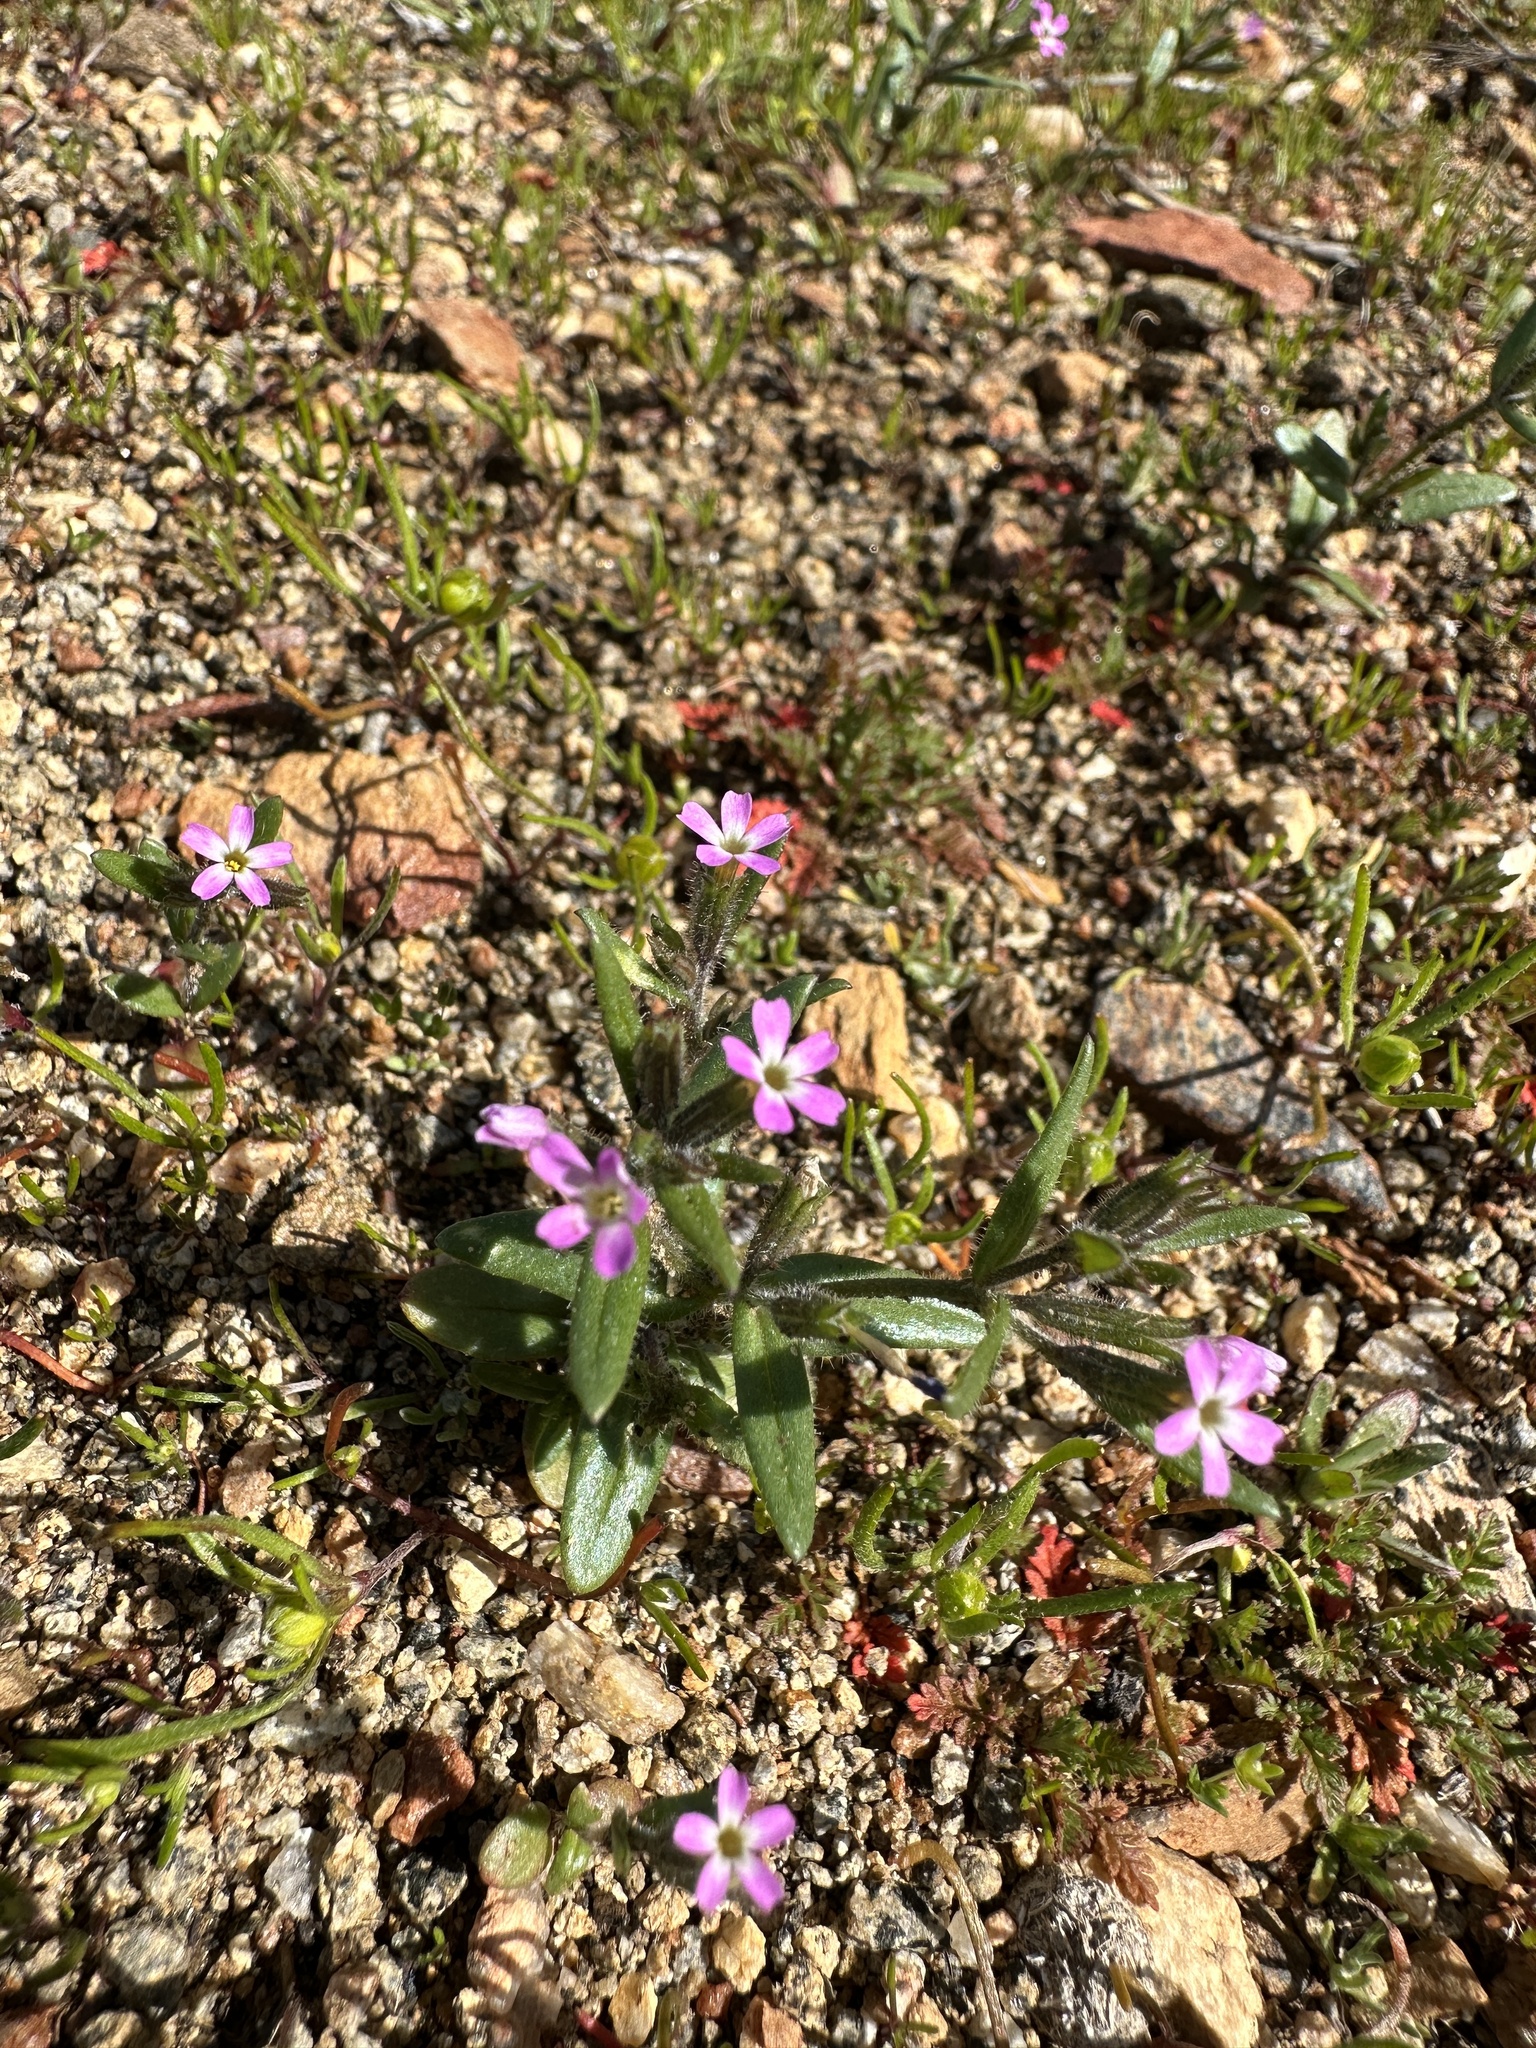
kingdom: Plantae
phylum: Tracheophyta
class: Magnoliopsida
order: Ericales
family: Polemoniaceae
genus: Phlox
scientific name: Phlox gracilis
